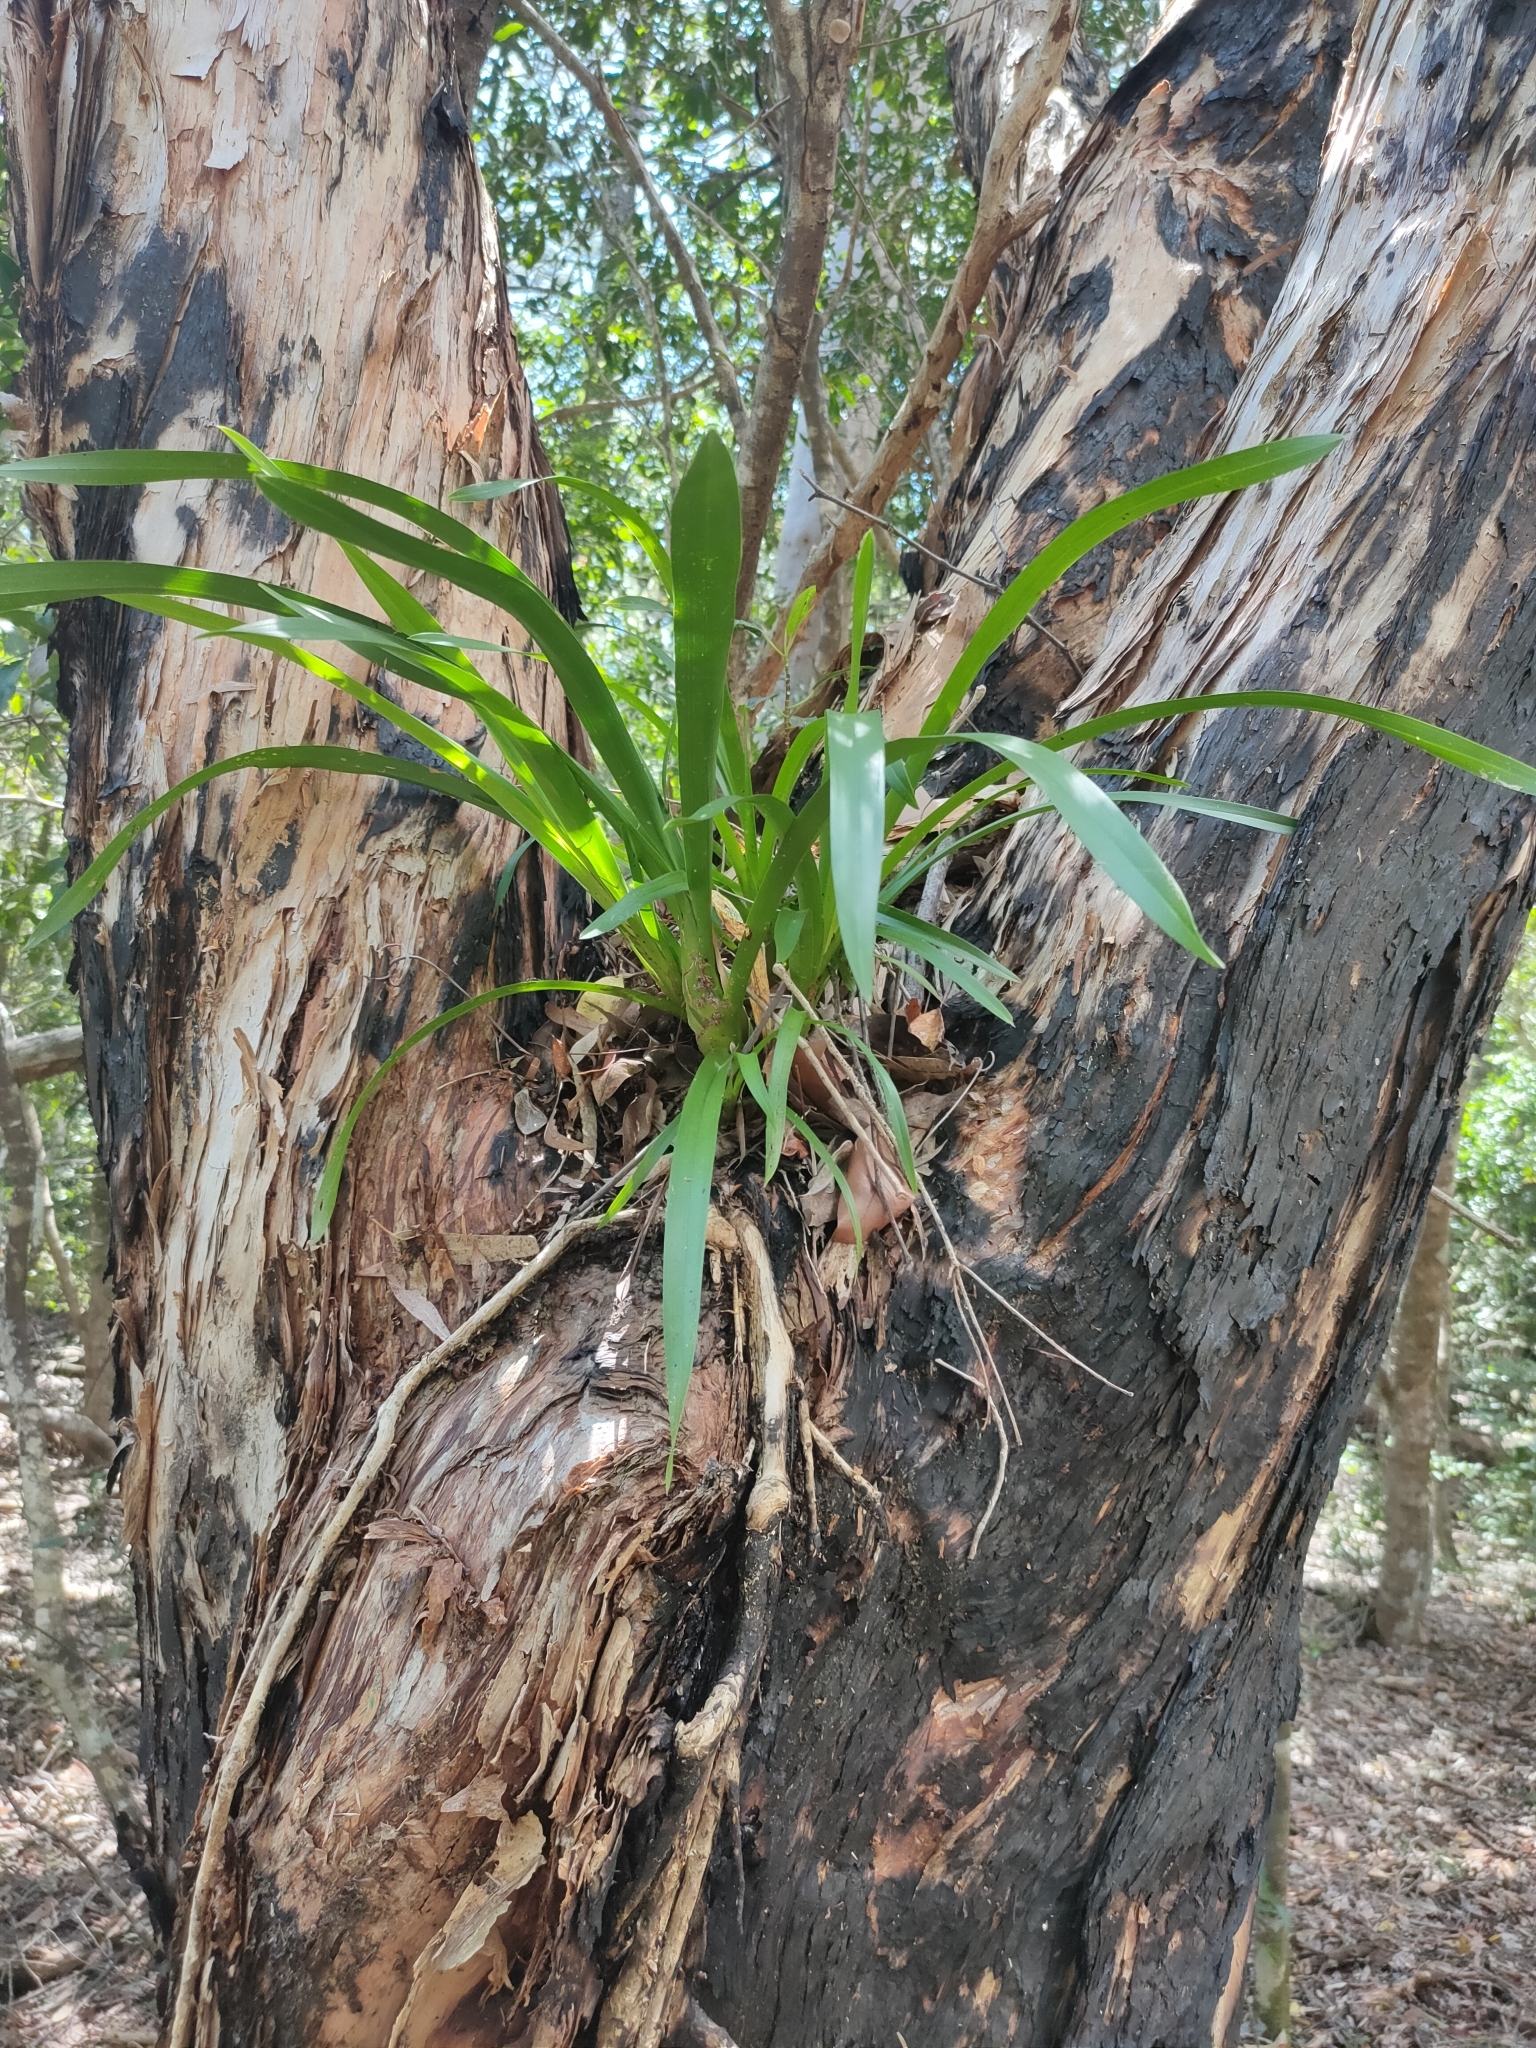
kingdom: Plantae
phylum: Tracheophyta
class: Liliopsida
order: Asparagales
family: Orchidaceae
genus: Cymbidium
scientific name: Cymbidium madidum
